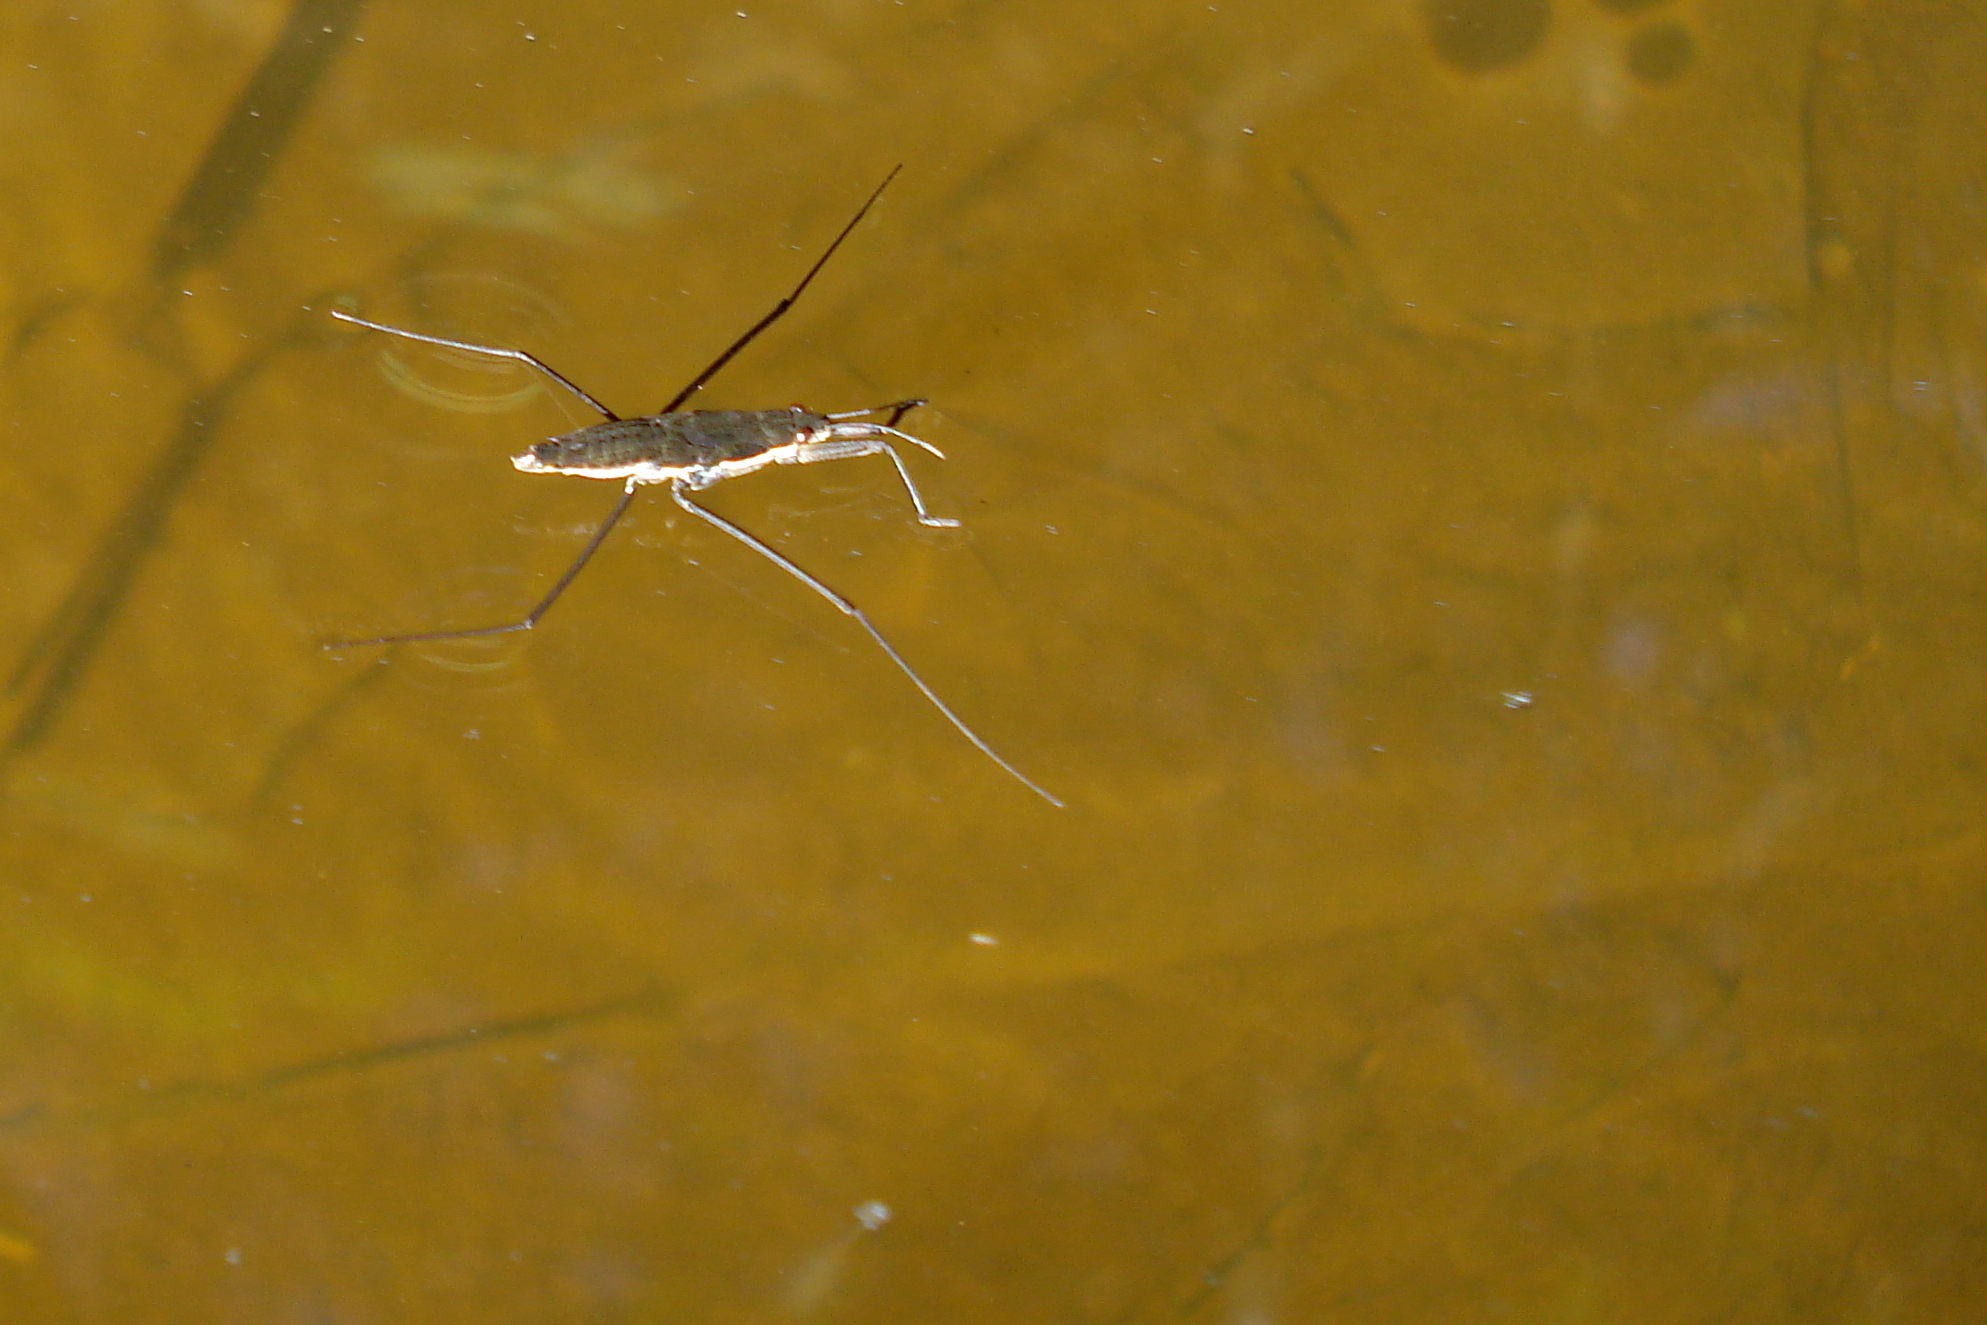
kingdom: Animalia
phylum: Arthropoda
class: Insecta
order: Hemiptera
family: Gerridae
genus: Aquarius
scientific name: Aquarius remigis
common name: Common water strider
